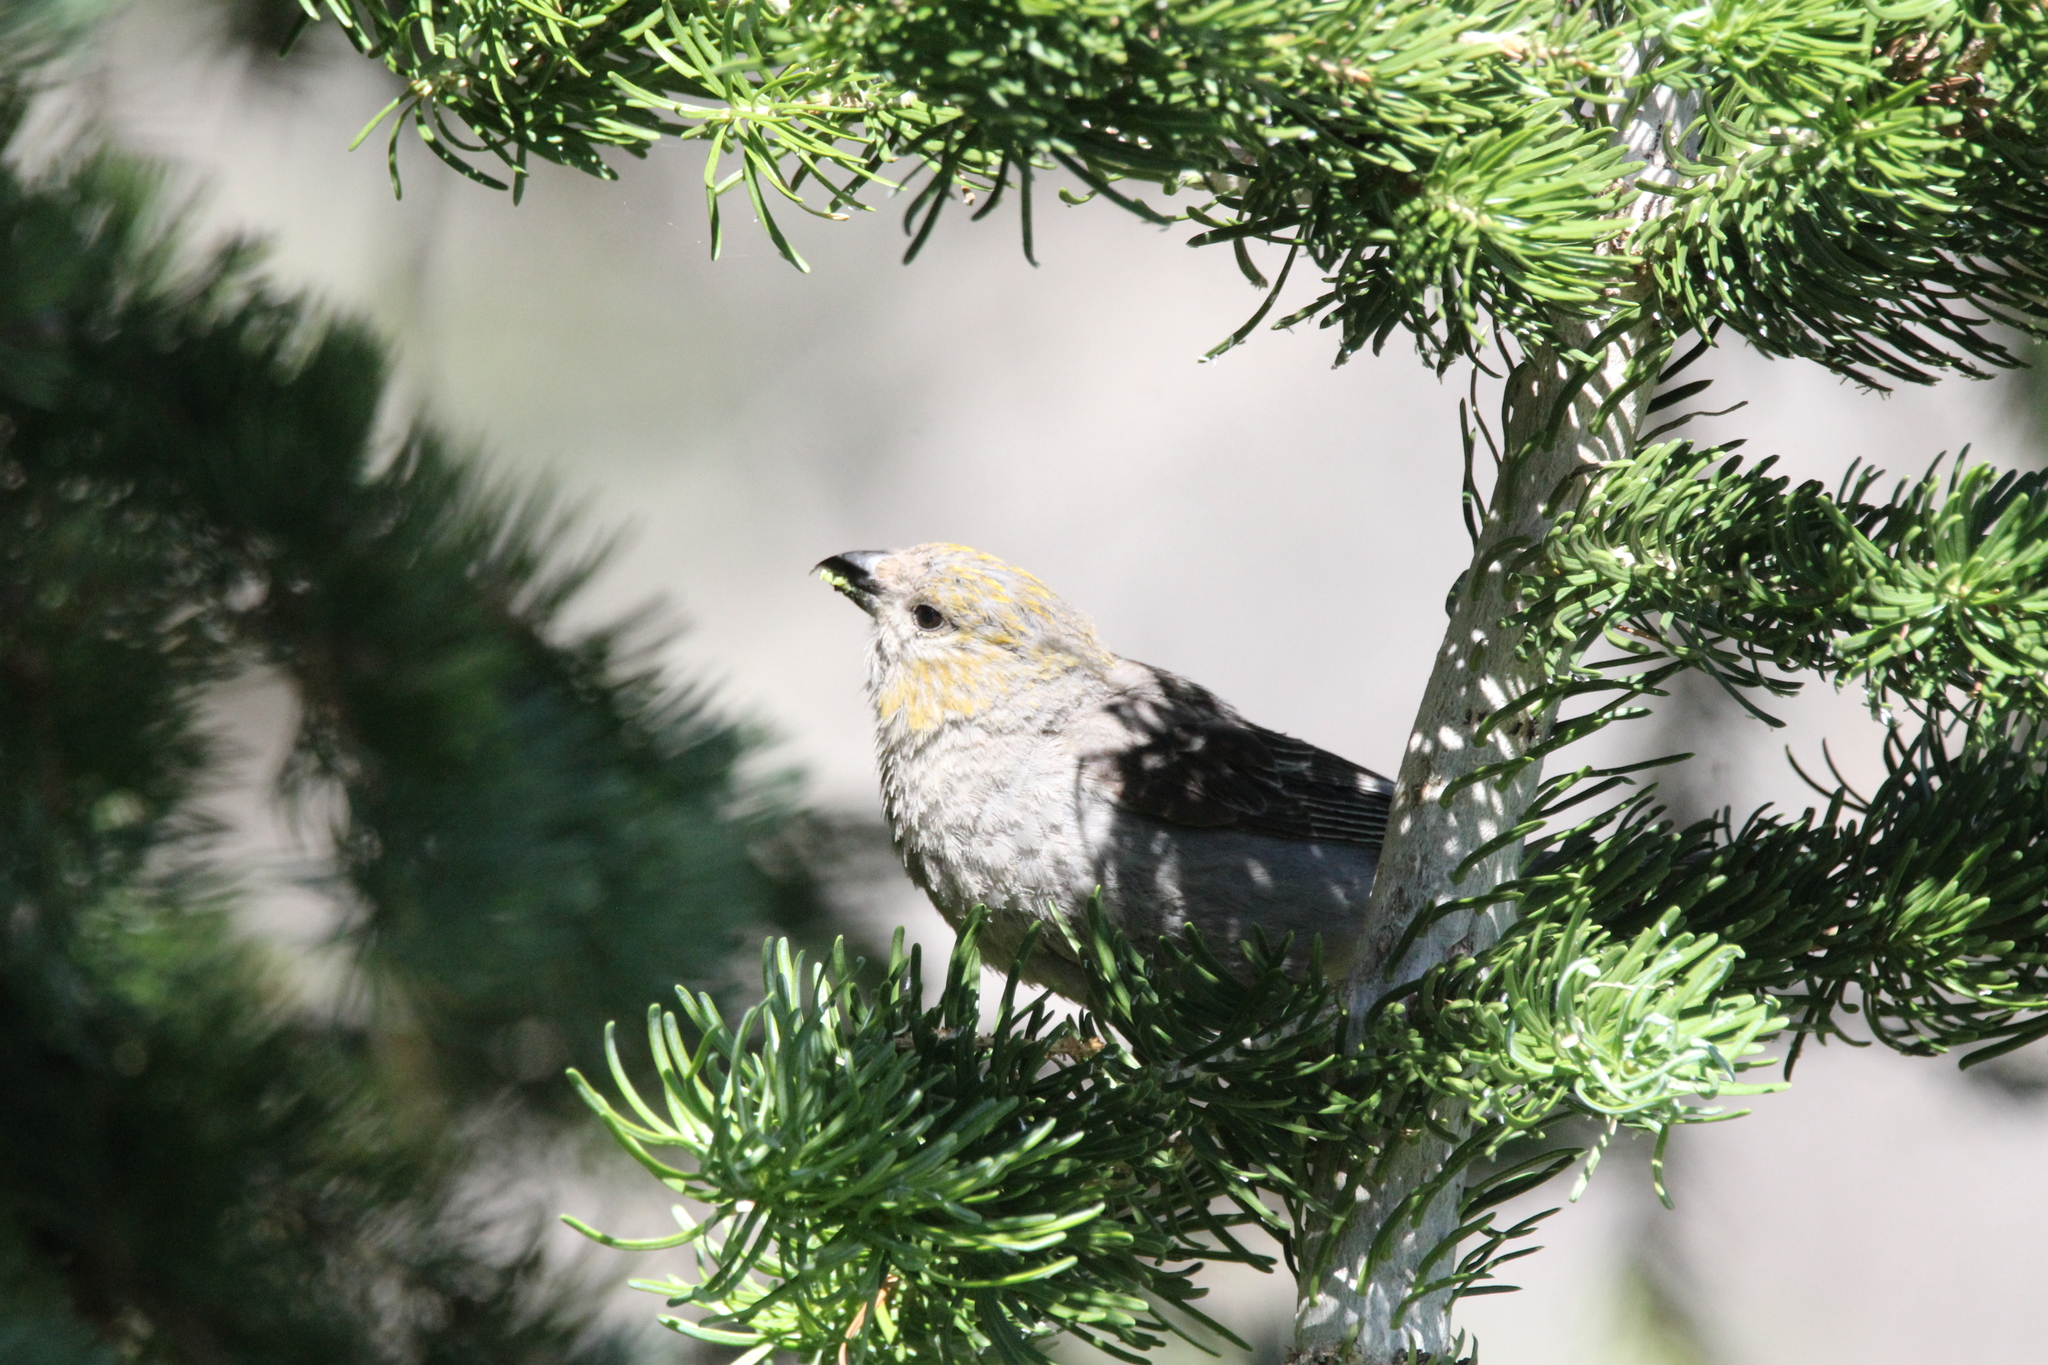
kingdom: Animalia
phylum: Chordata
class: Aves
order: Passeriformes
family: Fringillidae
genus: Pinicola
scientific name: Pinicola enucleator
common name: Pine grosbeak
